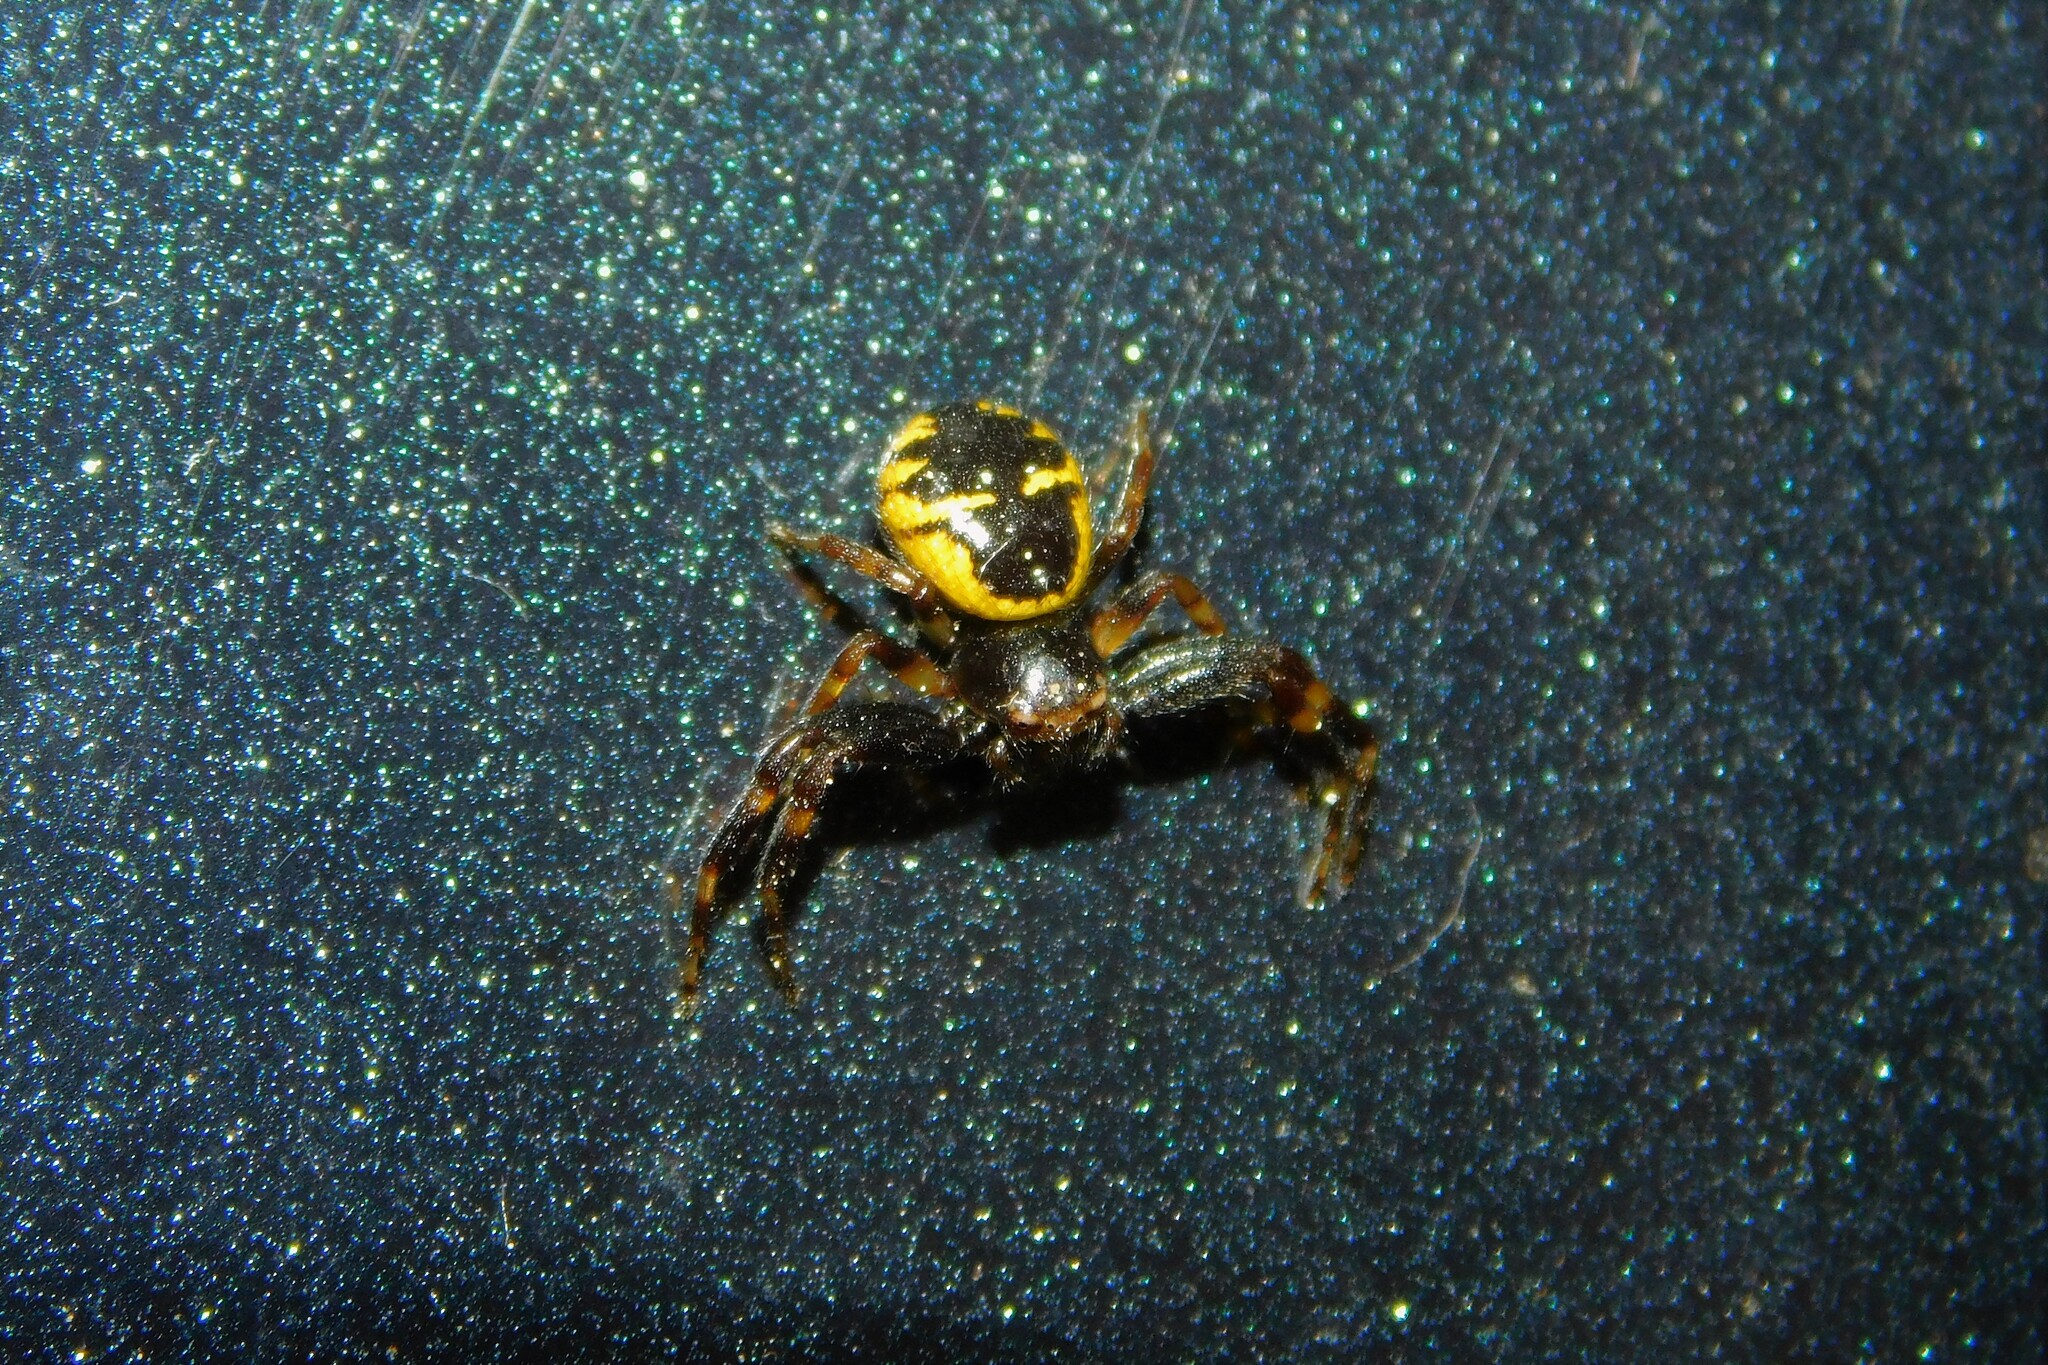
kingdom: Animalia
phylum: Arthropoda
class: Arachnida
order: Araneae
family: Thomisidae
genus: Synema
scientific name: Synema globosum
